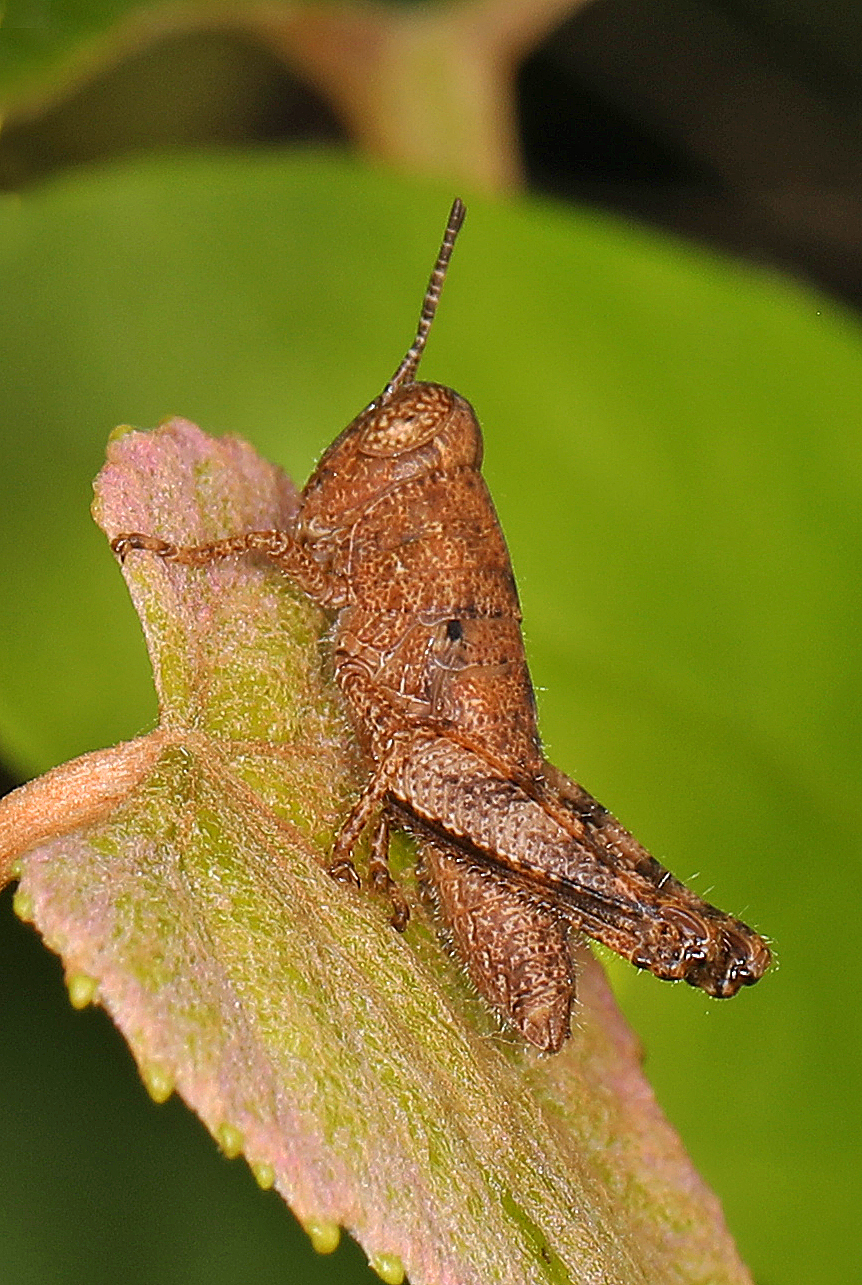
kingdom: Animalia
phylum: Arthropoda
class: Insecta
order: Orthoptera
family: Acrididae
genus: Melanoplus
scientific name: Melanoplus scudderi
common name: Scudder's short-winged locust
